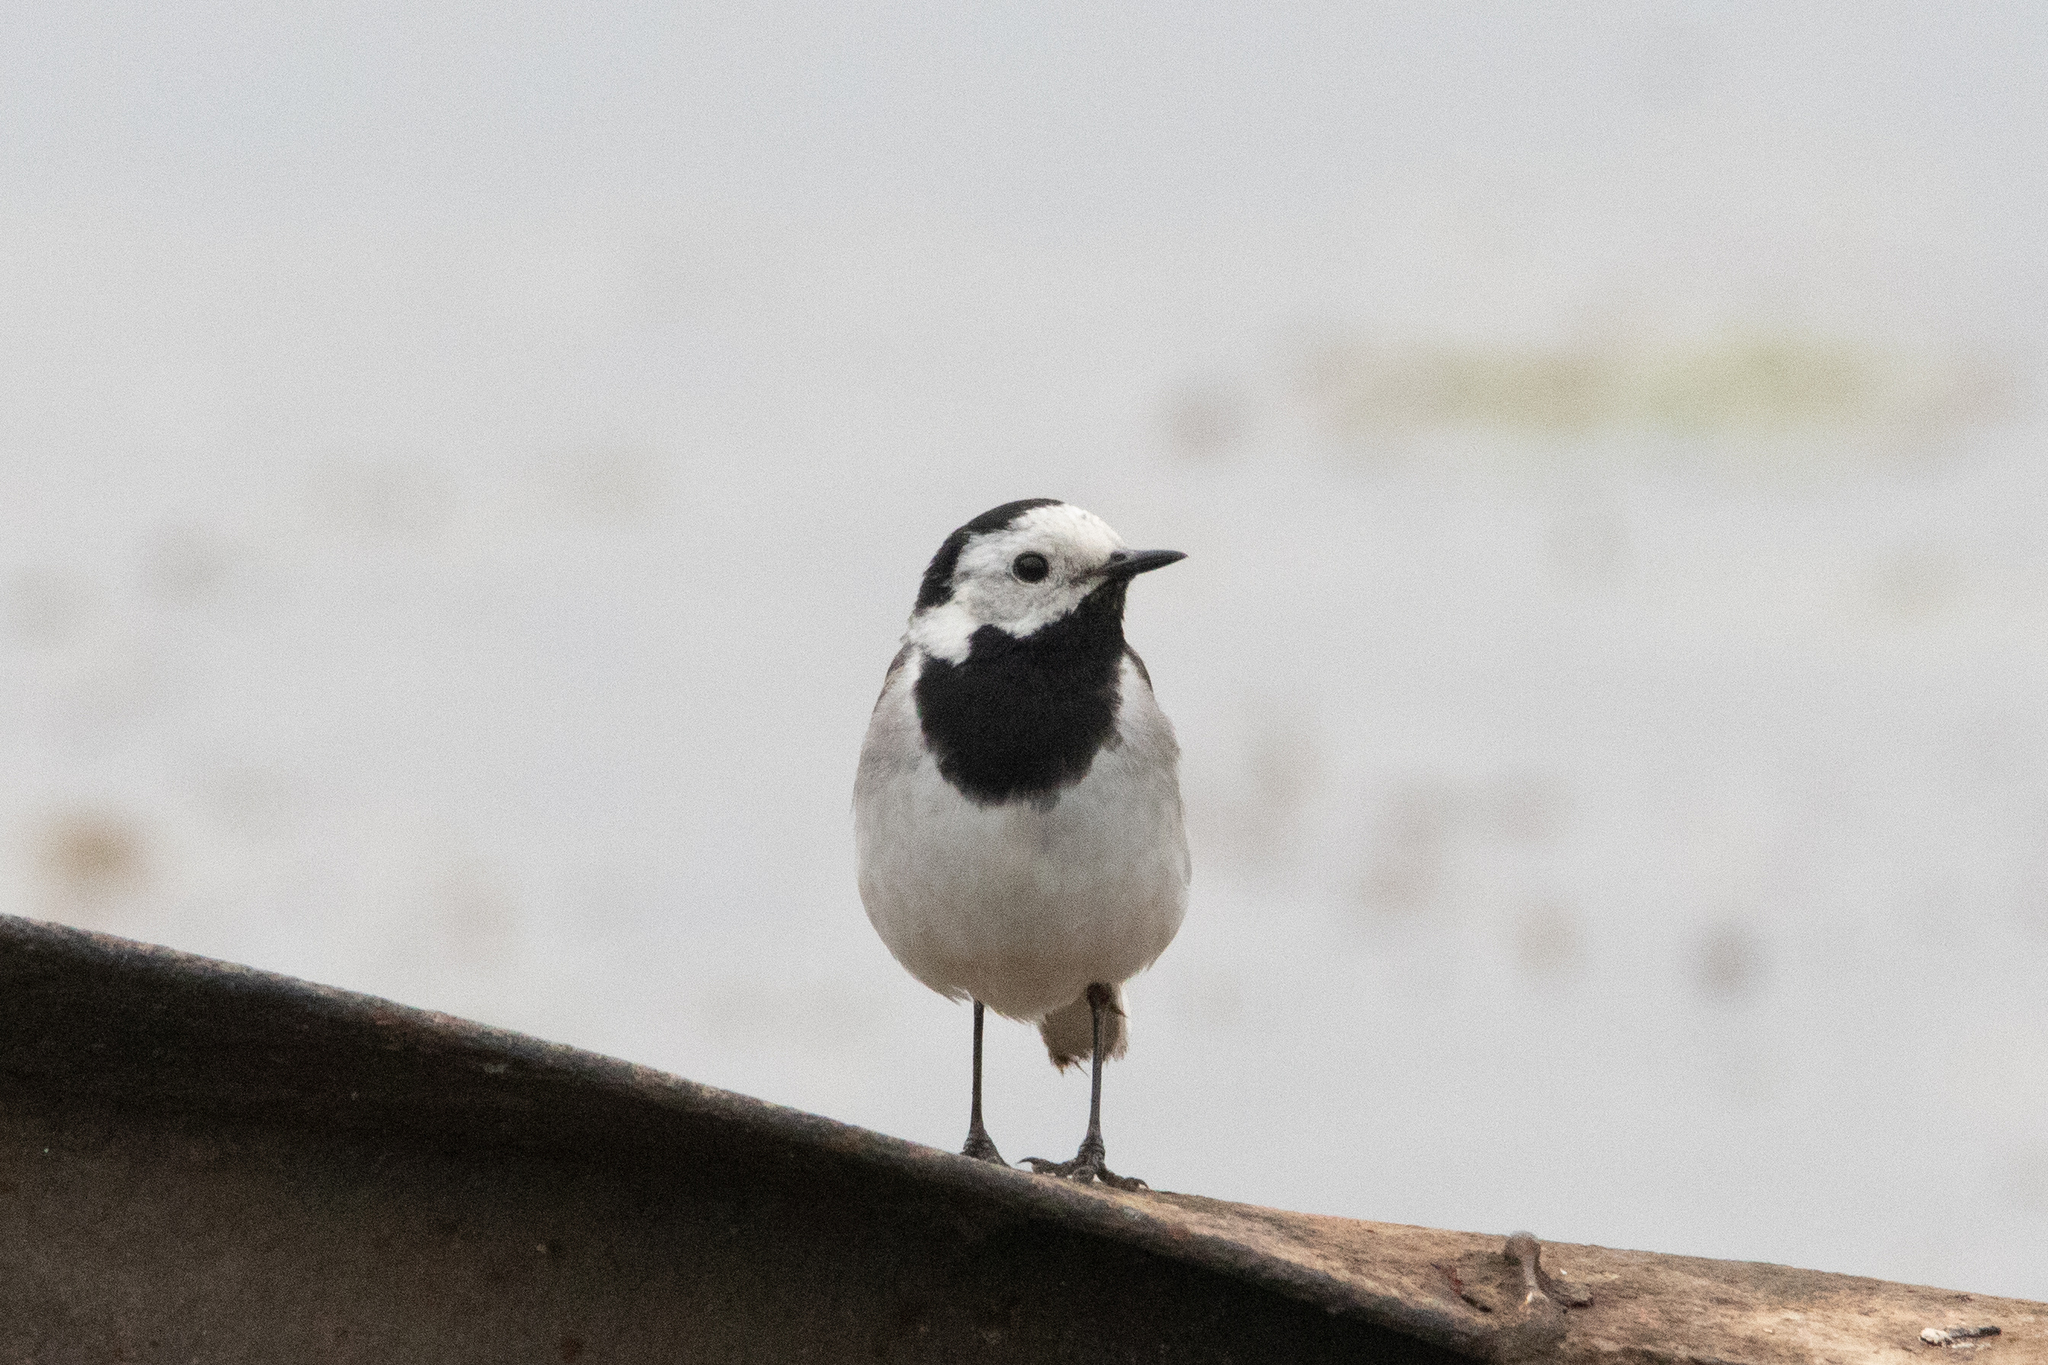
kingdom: Animalia
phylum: Chordata
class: Aves
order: Passeriformes
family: Motacillidae
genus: Motacilla
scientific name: Motacilla alba
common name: White wagtail
